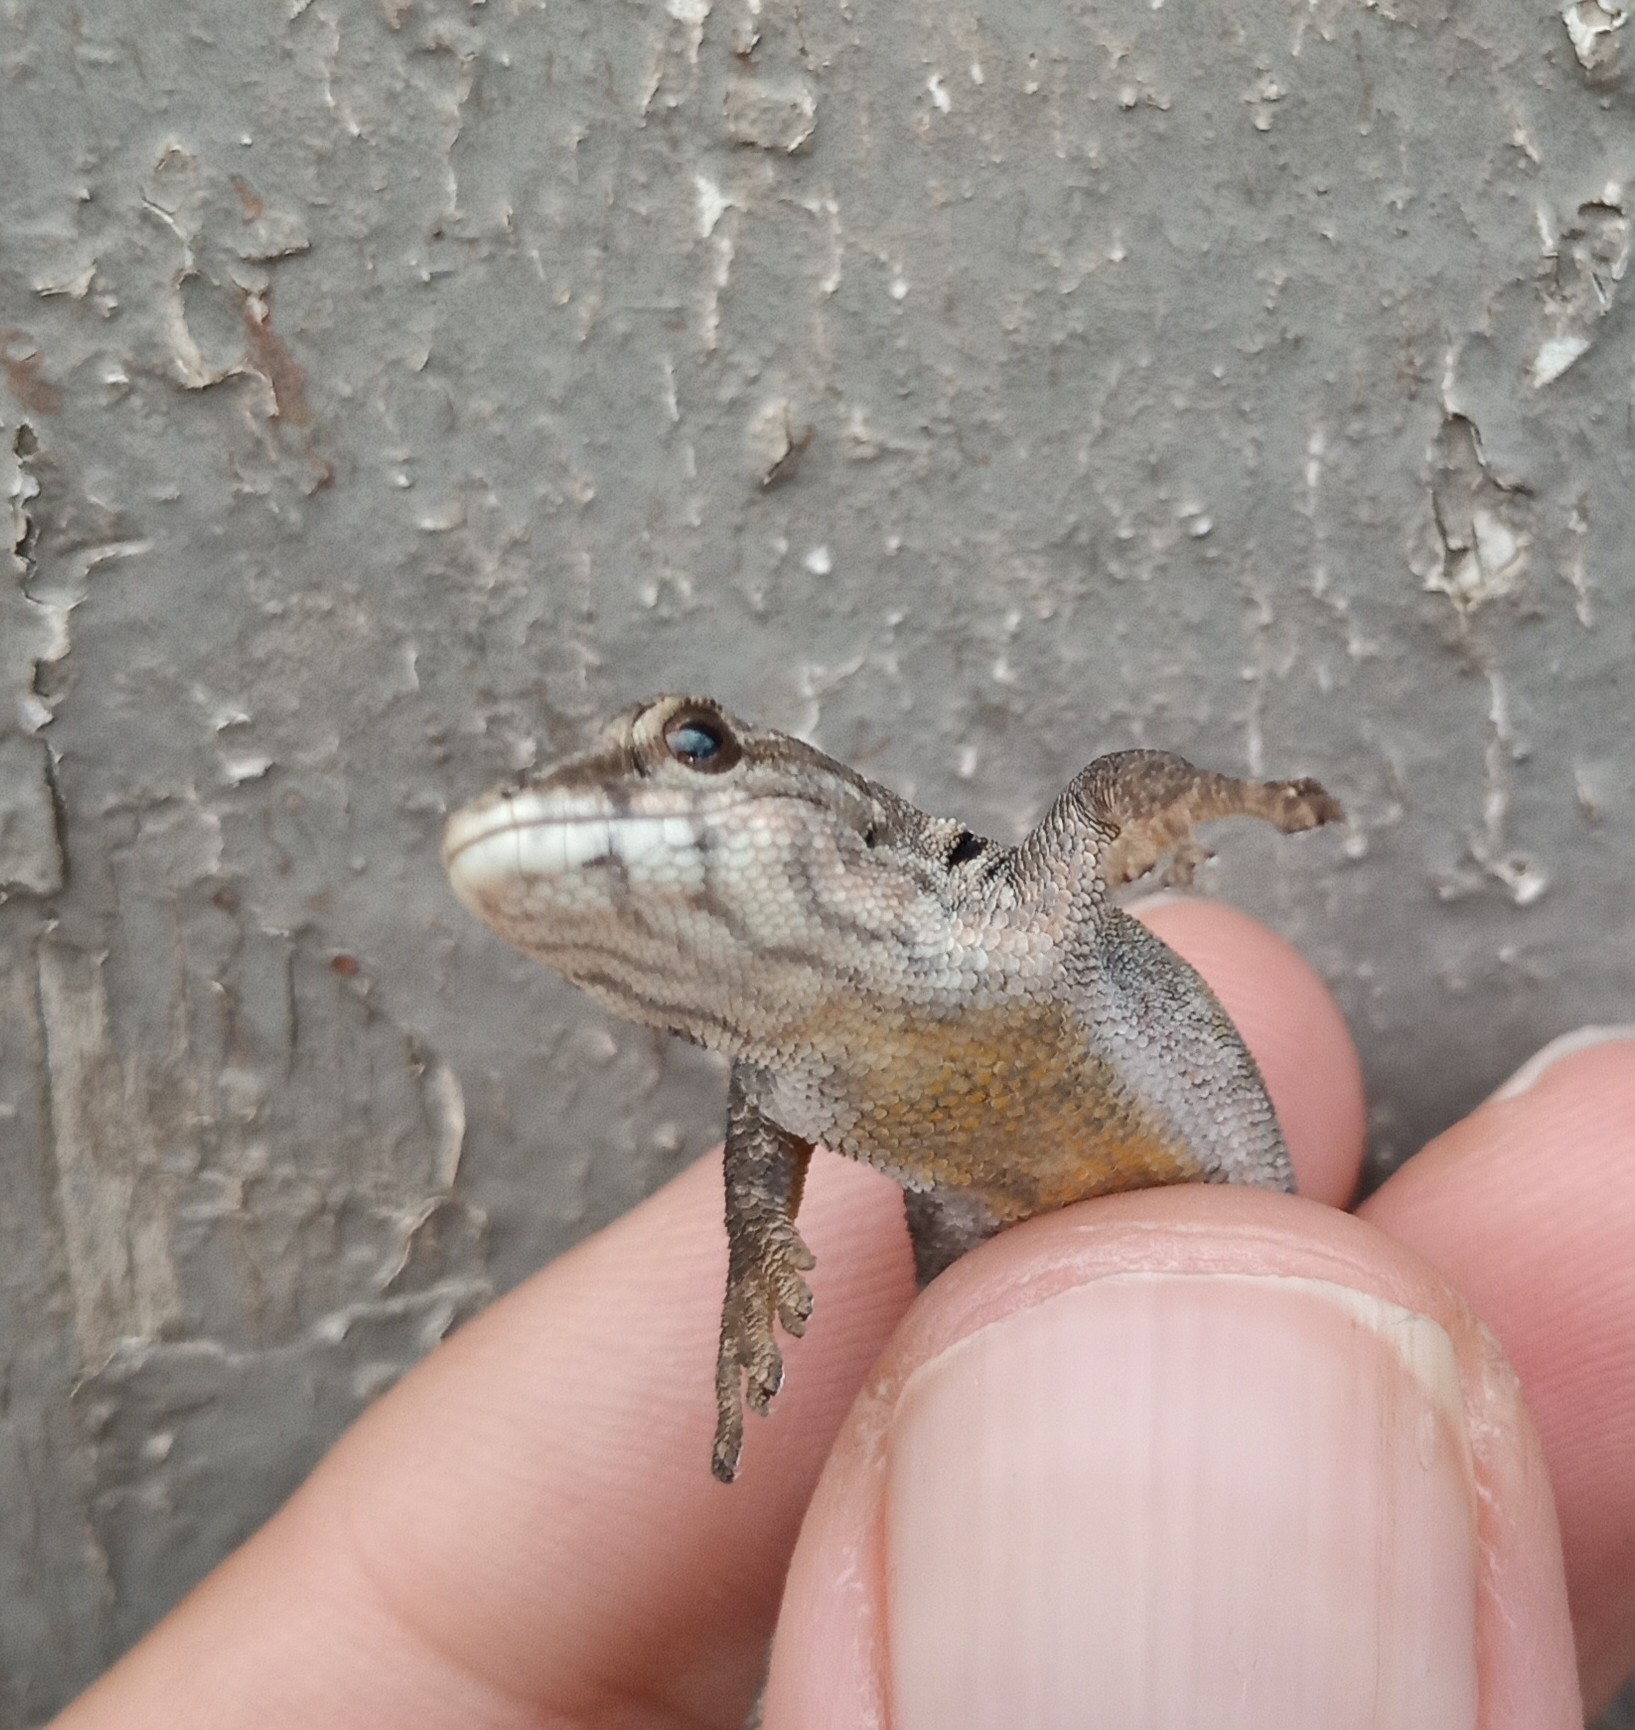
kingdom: Animalia
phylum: Chordata
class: Squamata
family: Gekkonidae
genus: Lygodactylus
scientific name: Lygodactylus angularis
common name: Angulate dwarf gecko
